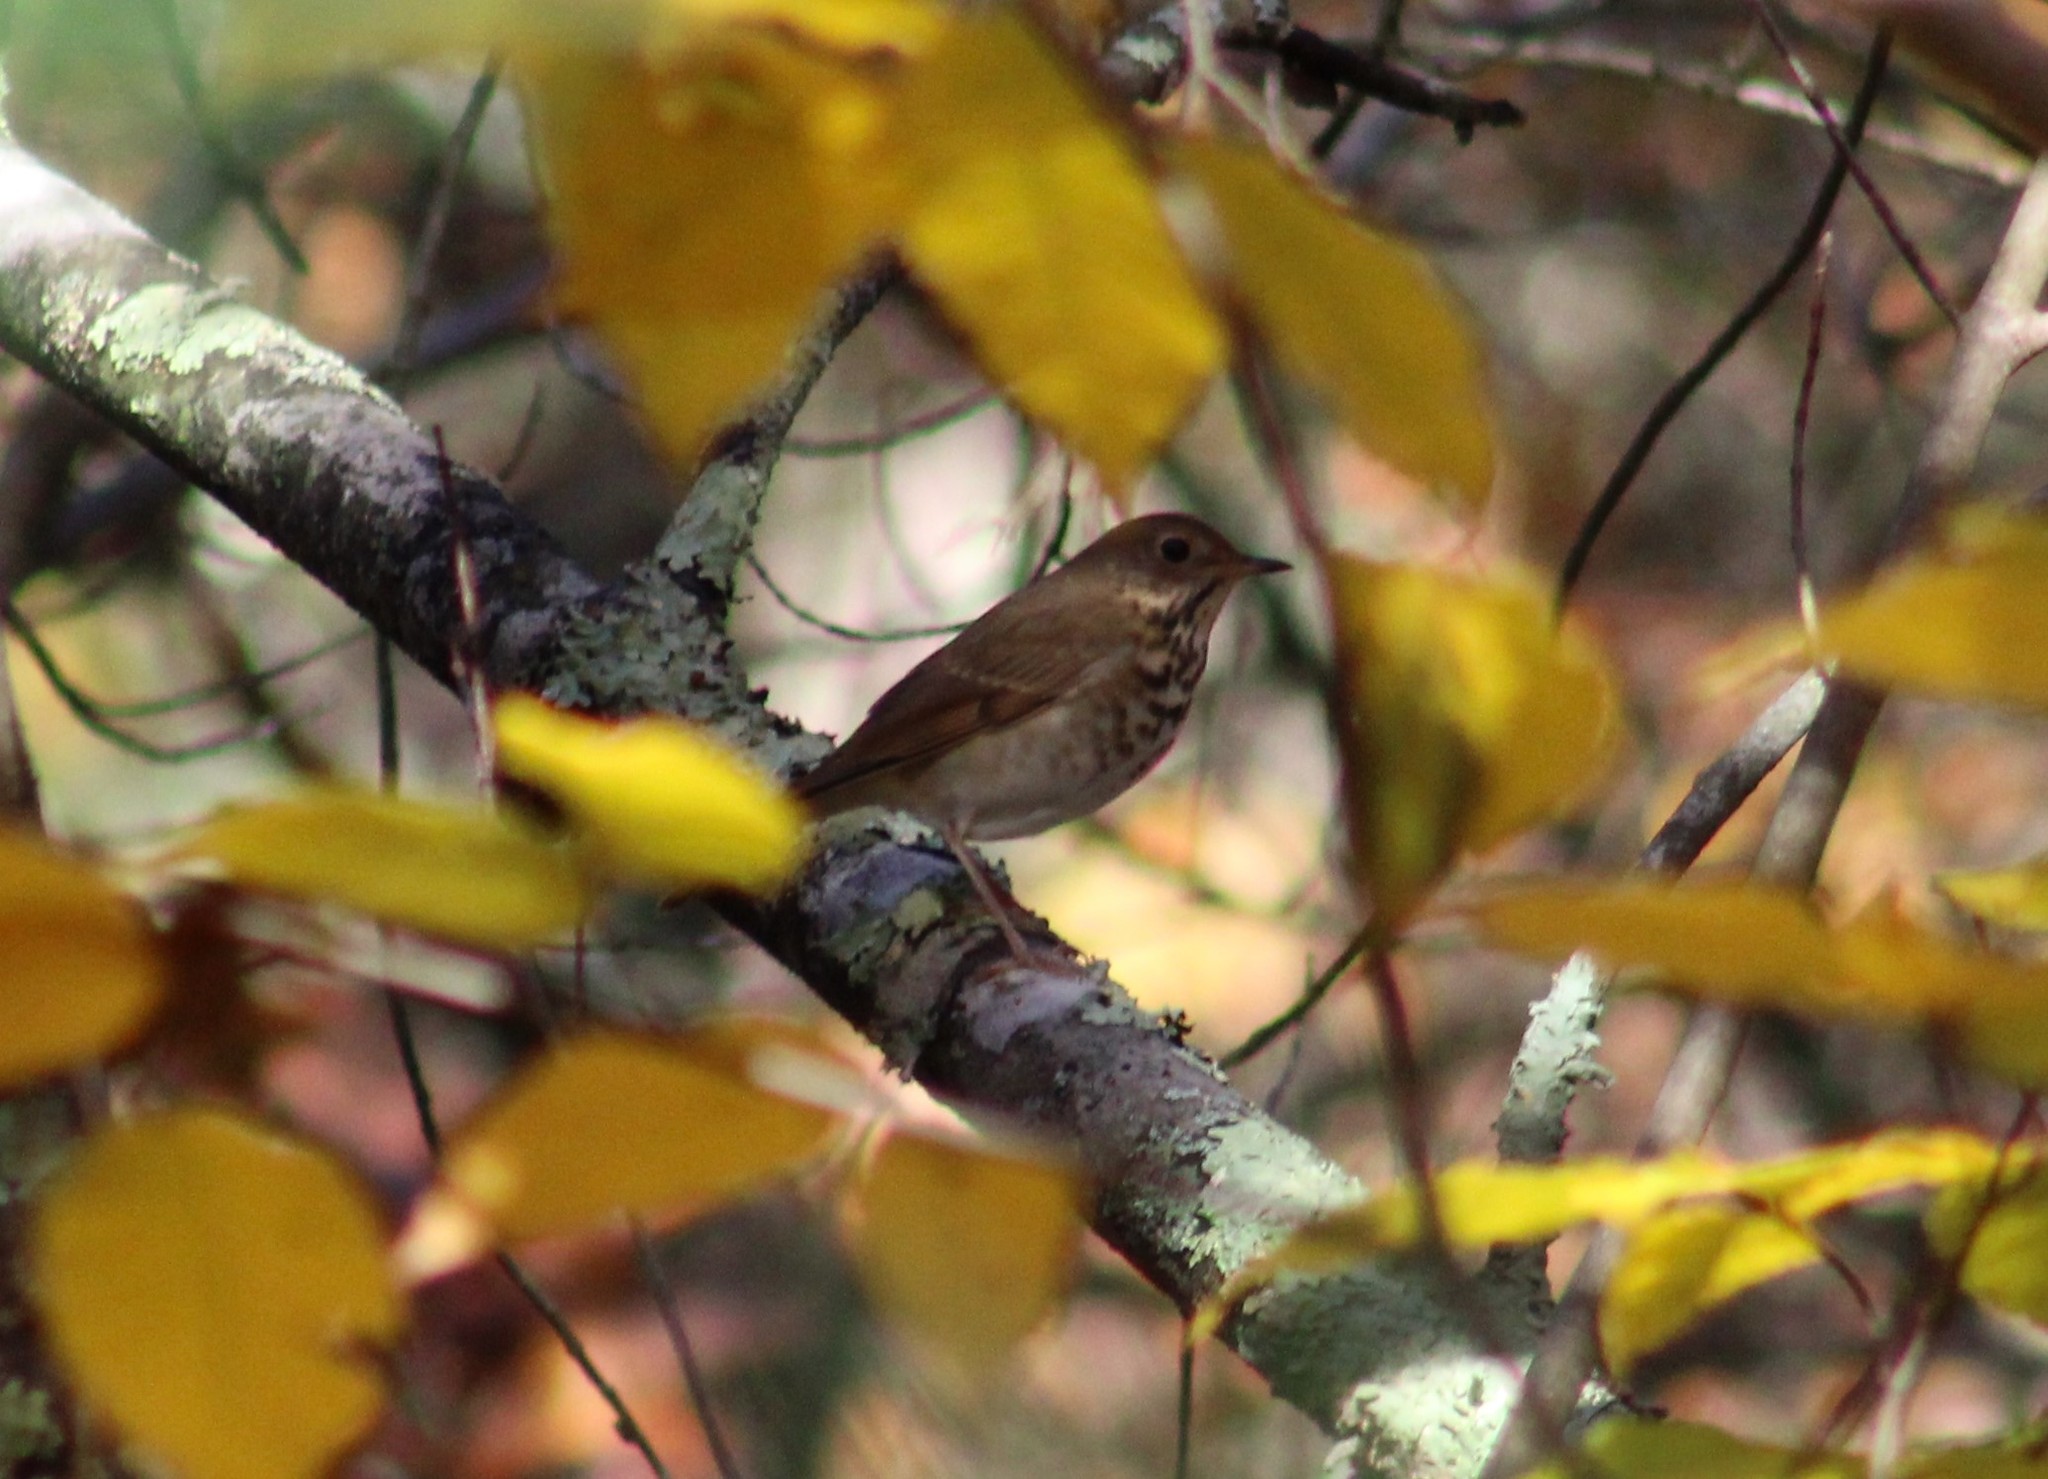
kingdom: Animalia
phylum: Chordata
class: Aves
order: Passeriformes
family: Turdidae
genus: Catharus
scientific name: Catharus guttatus
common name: Hermit thrush
